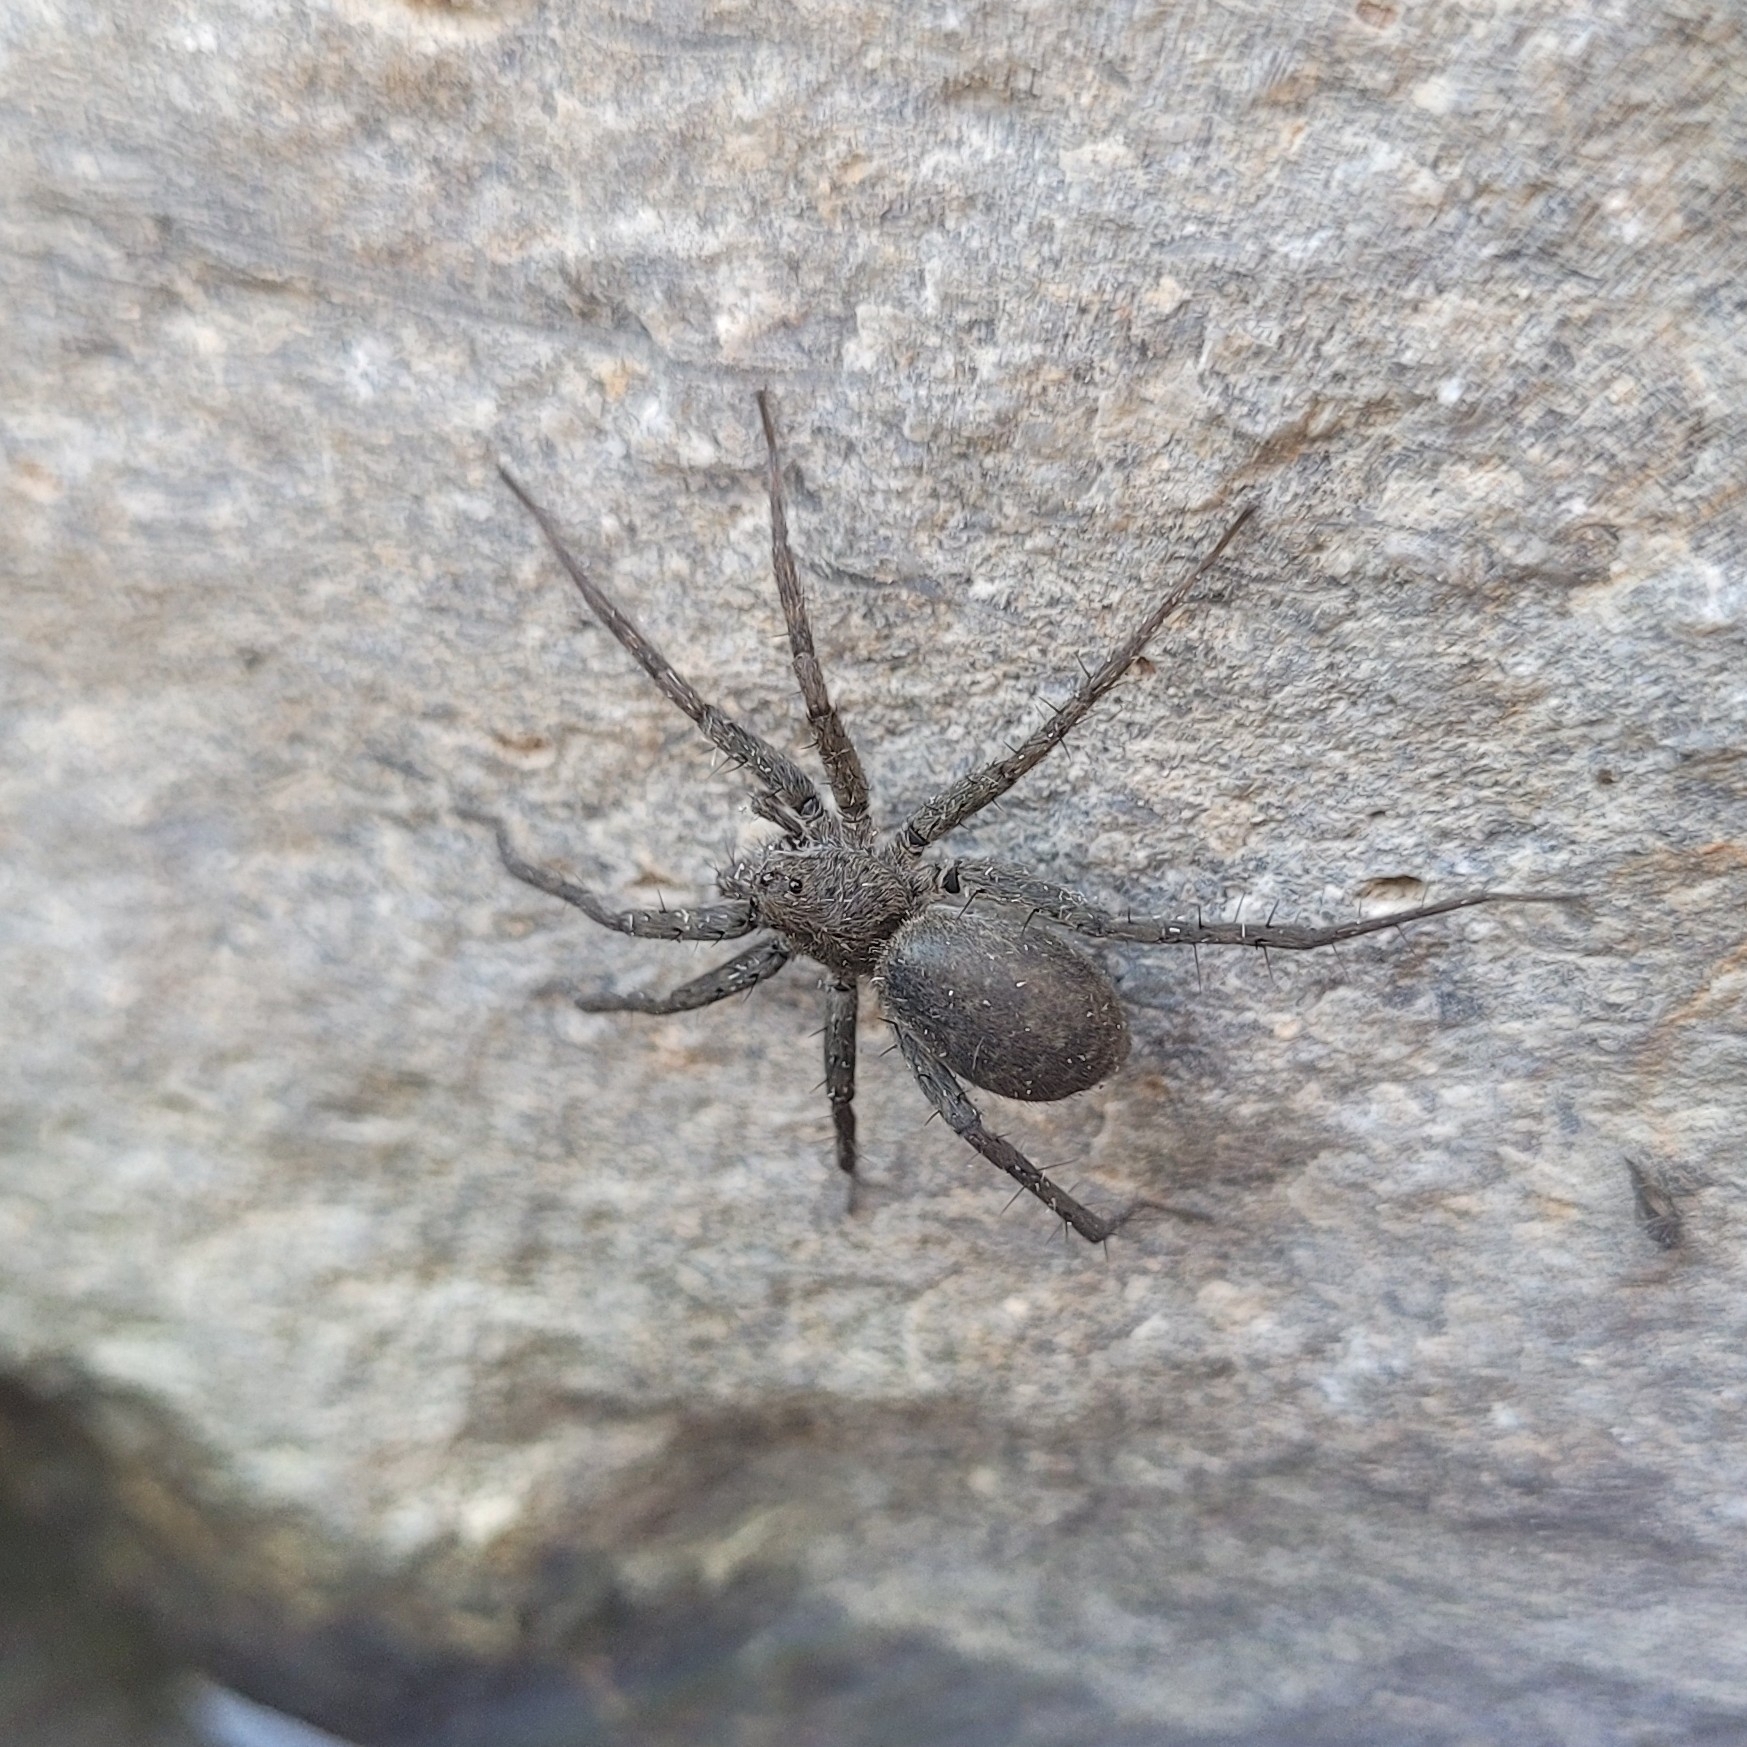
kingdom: Animalia
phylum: Arthropoda
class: Arachnida
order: Araneae
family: Lycosidae
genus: Pardosa
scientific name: Pardosa lapidicina
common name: Stone spider
